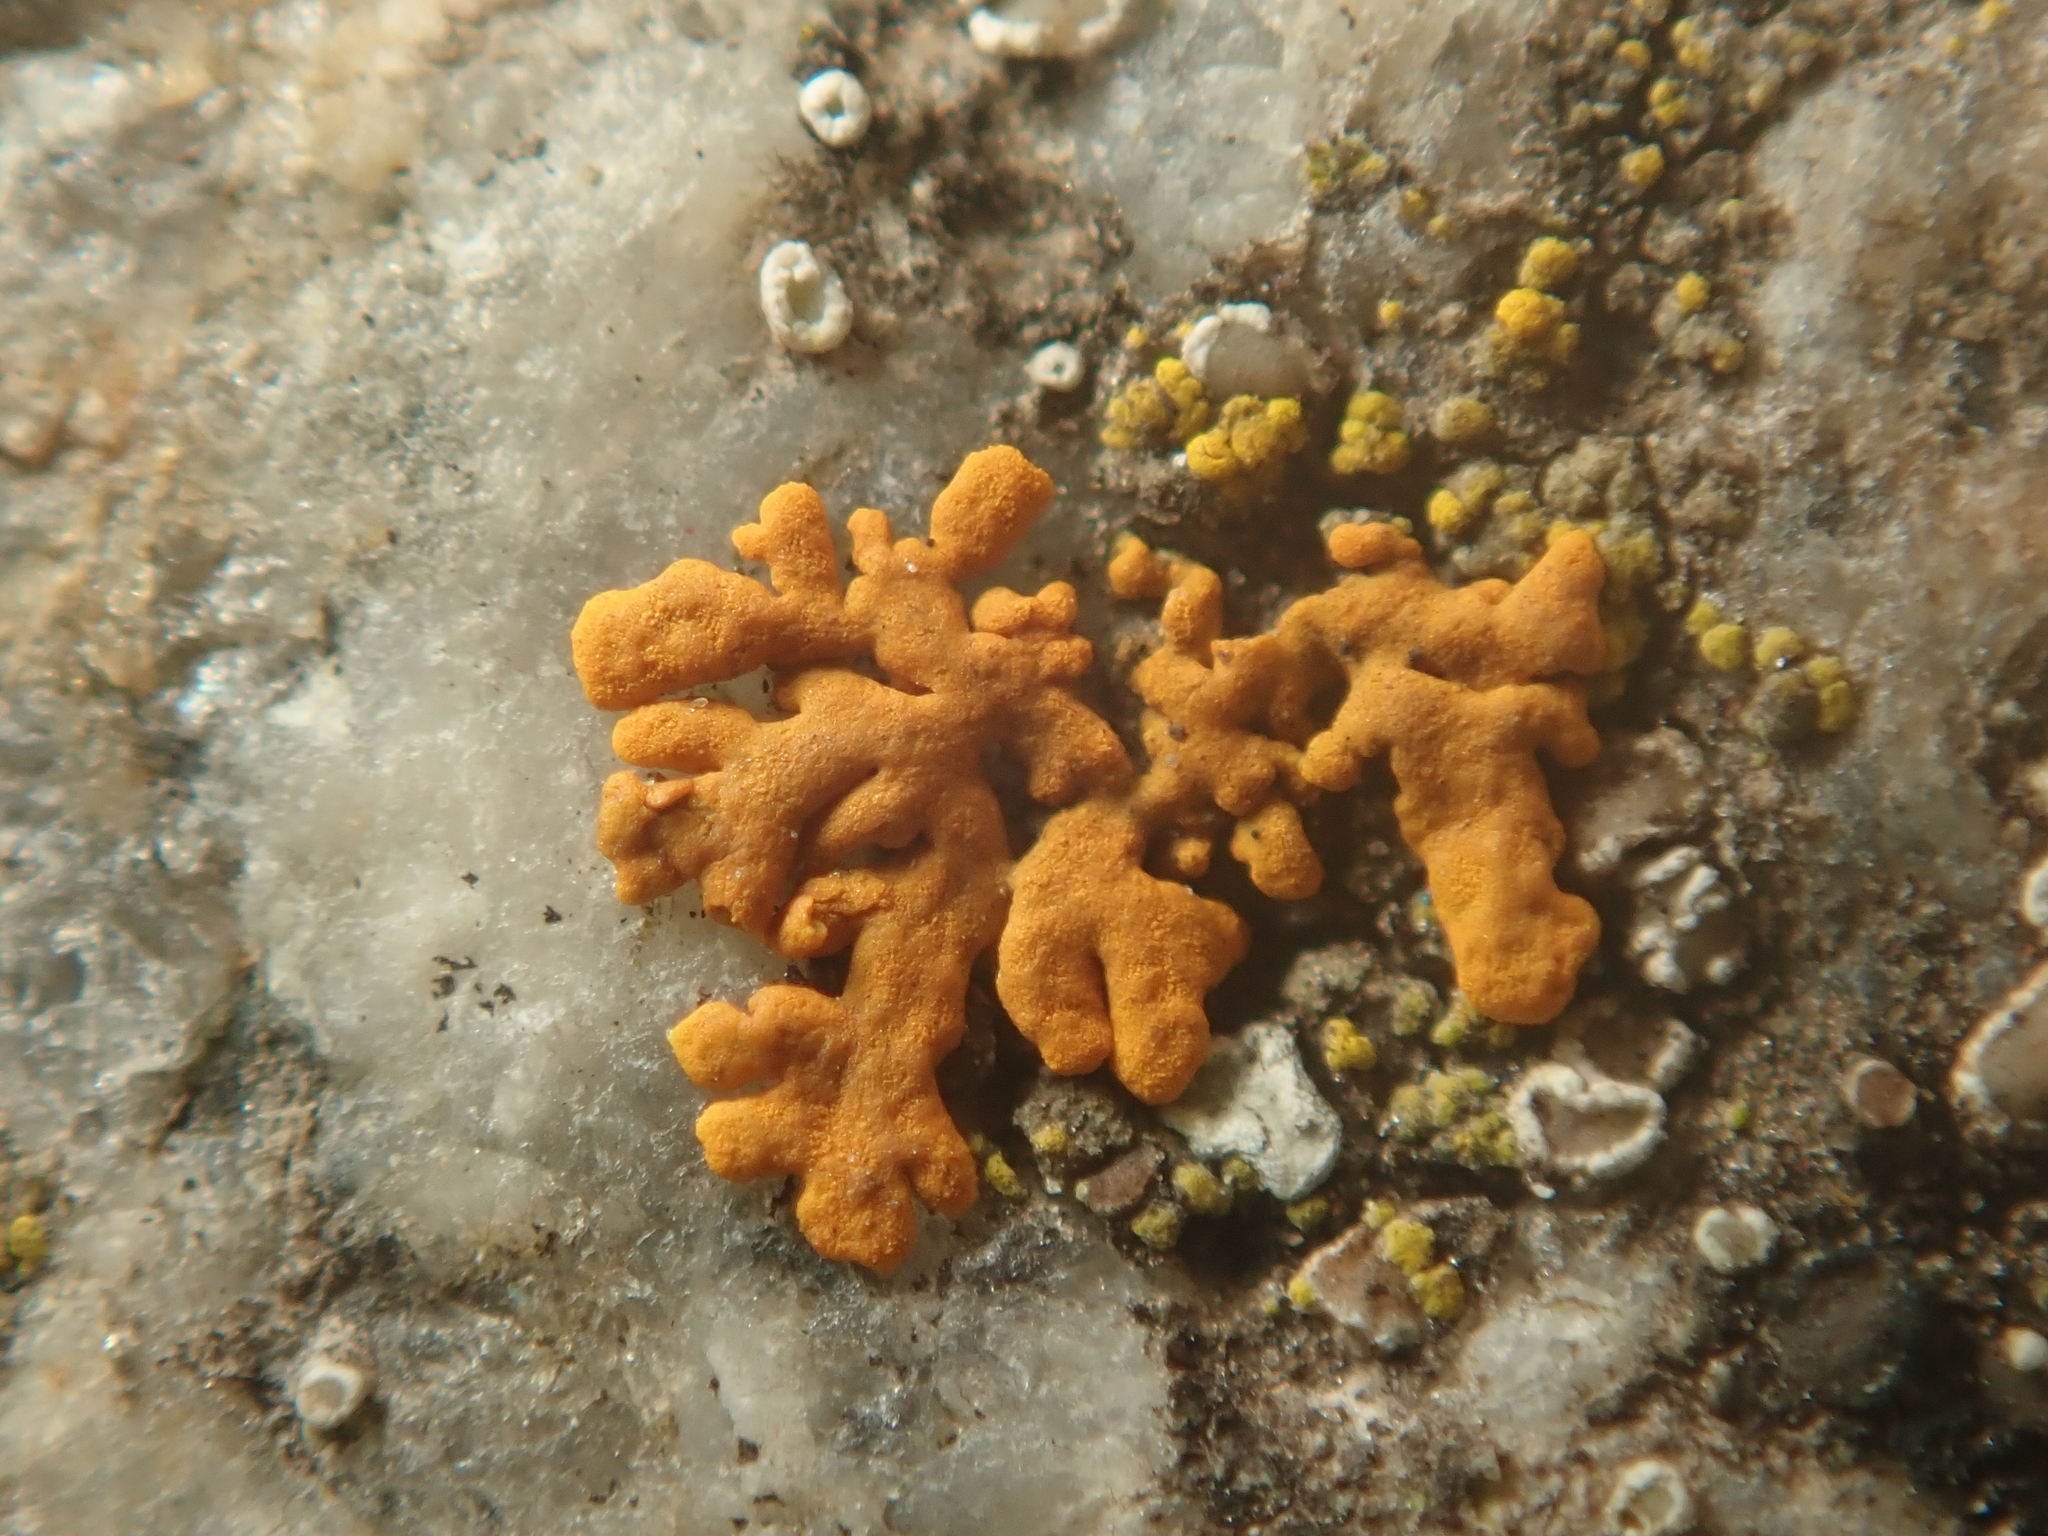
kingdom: Fungi
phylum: Ascomycota
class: Lecanoromycetes
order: Teloschistales
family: Teloschistaceae
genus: Xanthoria
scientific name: Xanthoria elegans
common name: Elegant sunburst lichen
